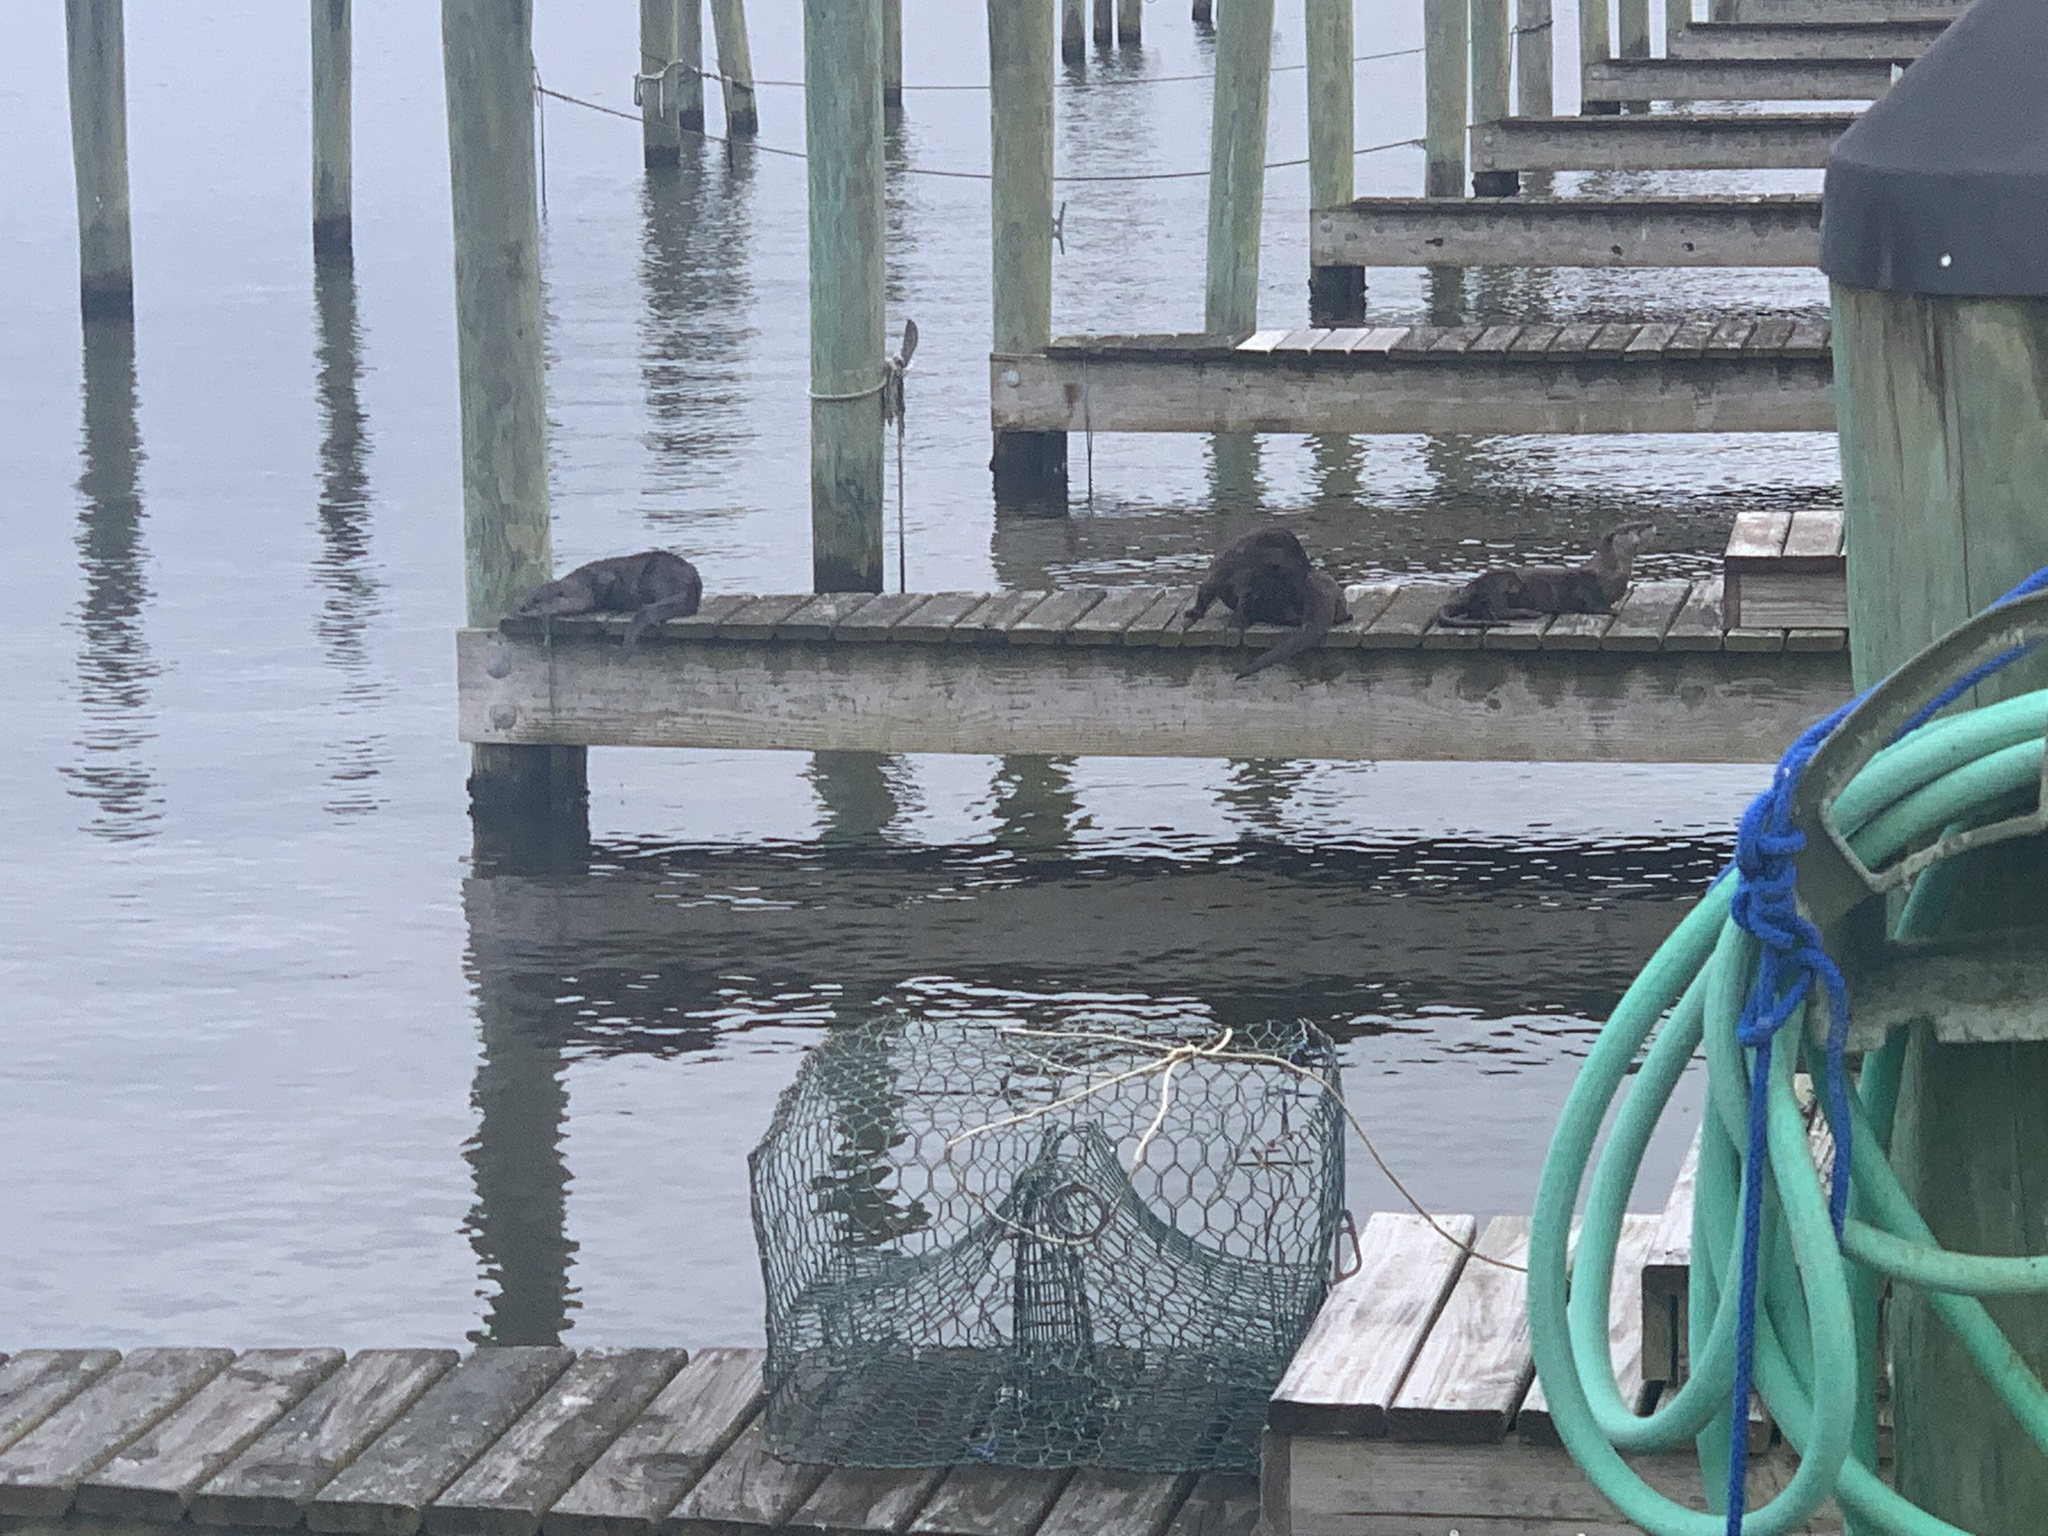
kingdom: Animalia
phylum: Chordata
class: Mammalia
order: Carnivora
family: Mustelidae
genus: Lontra
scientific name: Lontra canadensis
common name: North american river otter
